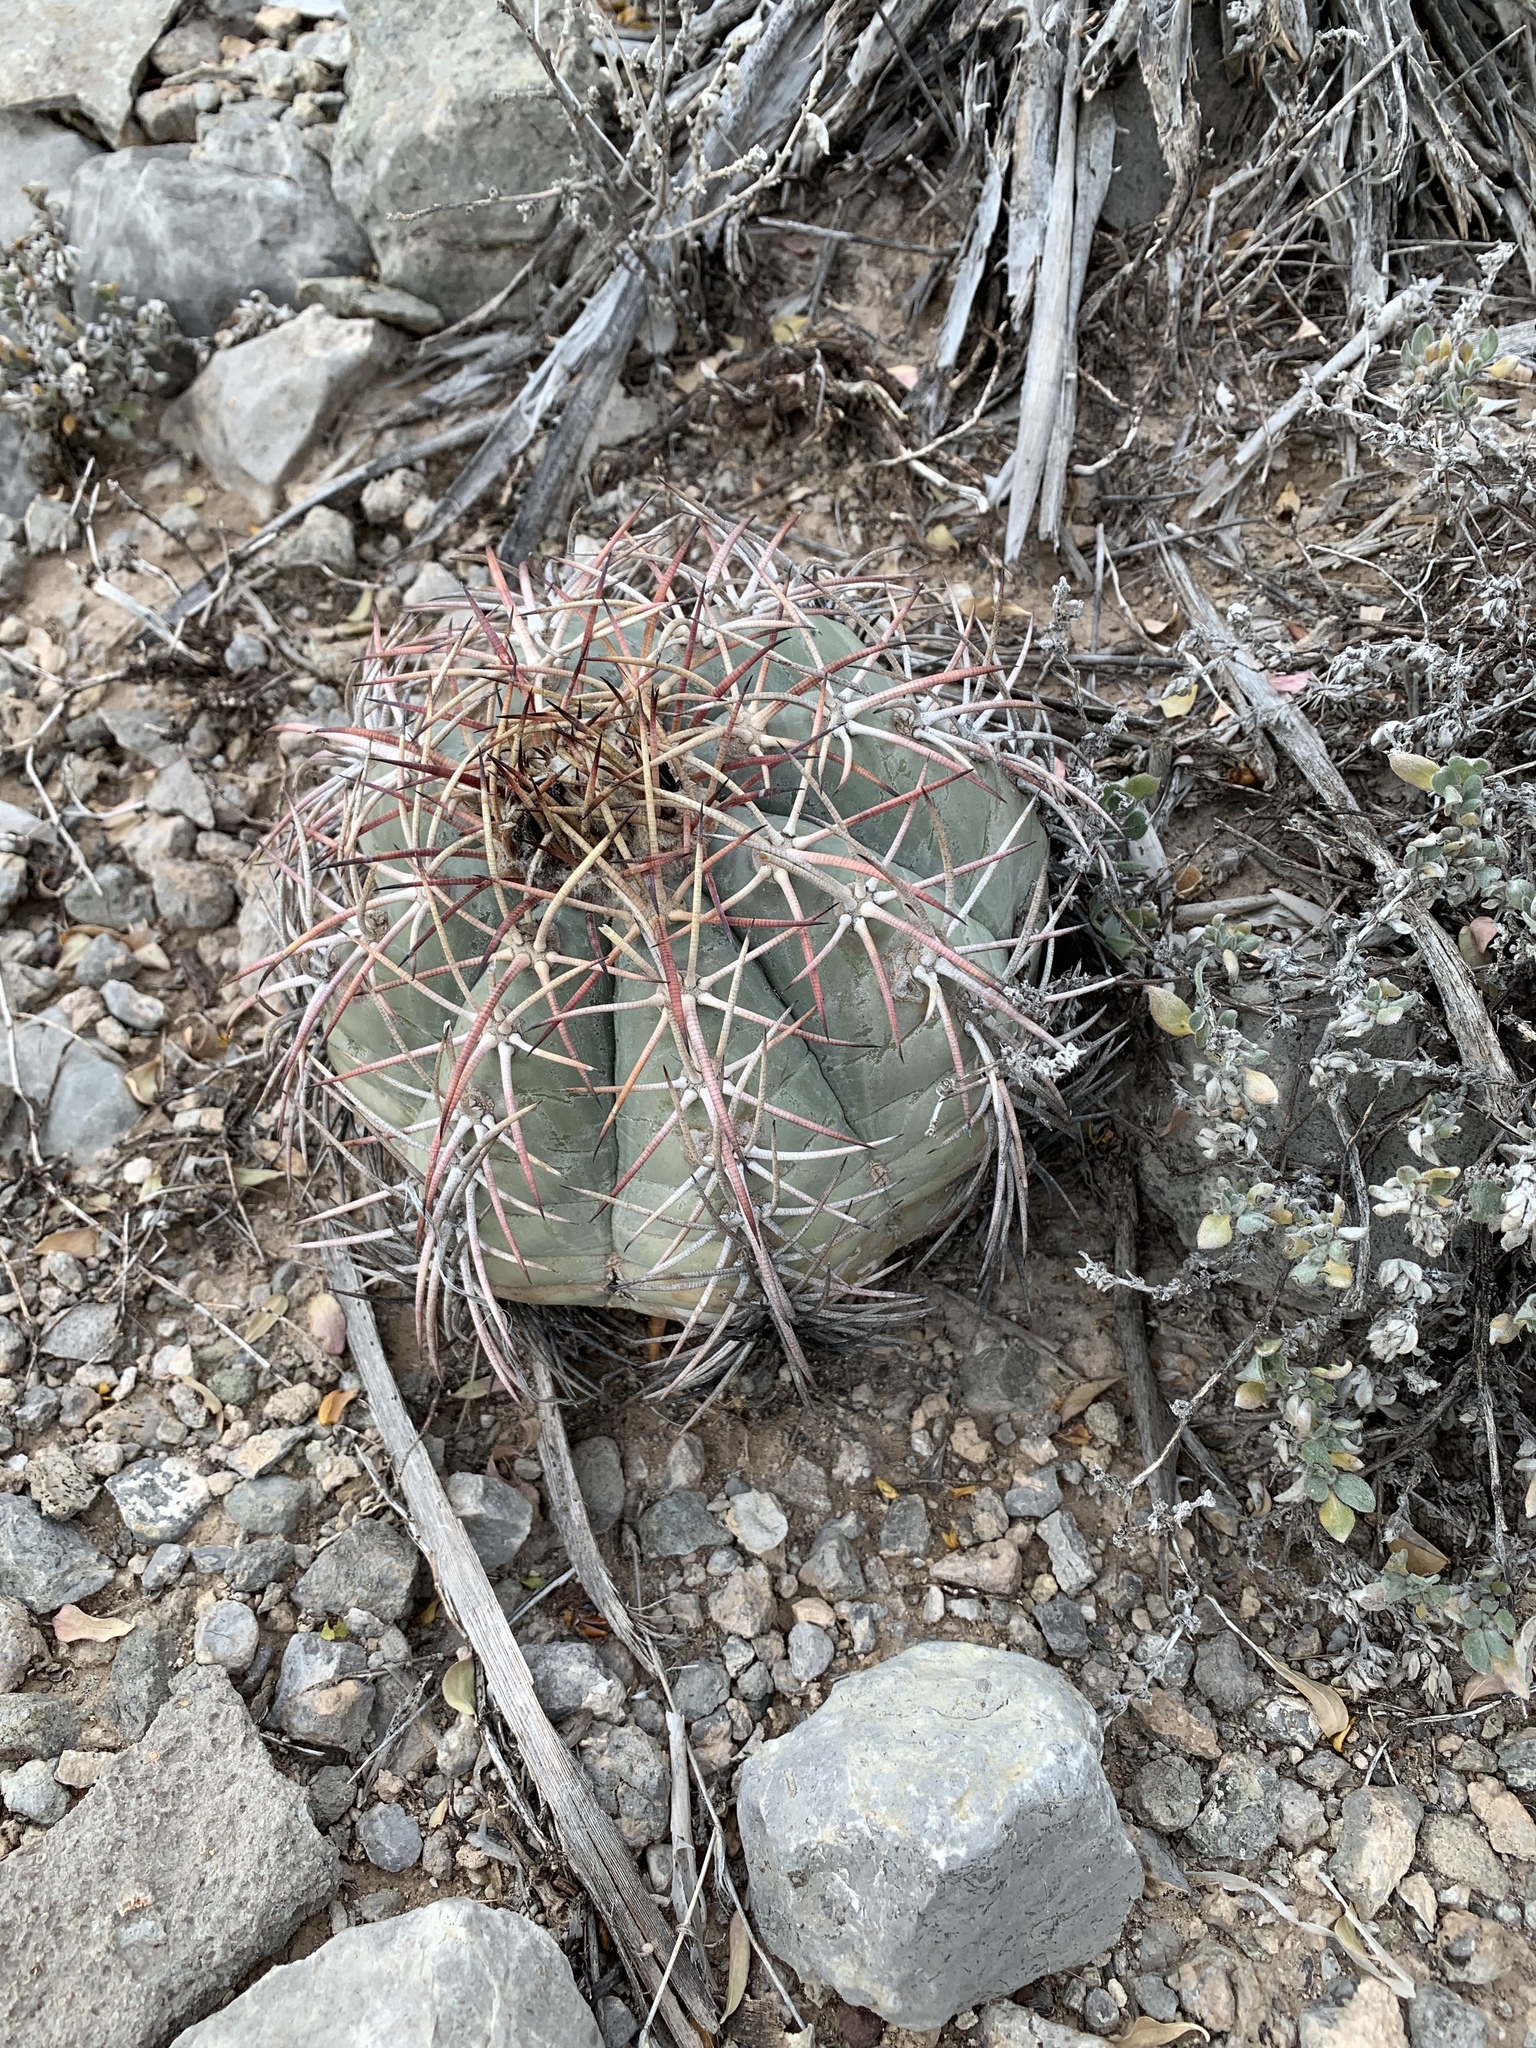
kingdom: Plantae
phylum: Tracheophyta
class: Magnoliopsida
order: Caryophyllales
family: Cactaceae
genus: Echinocactus
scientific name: Echinocactus horizonthalonius
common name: Devilshead
